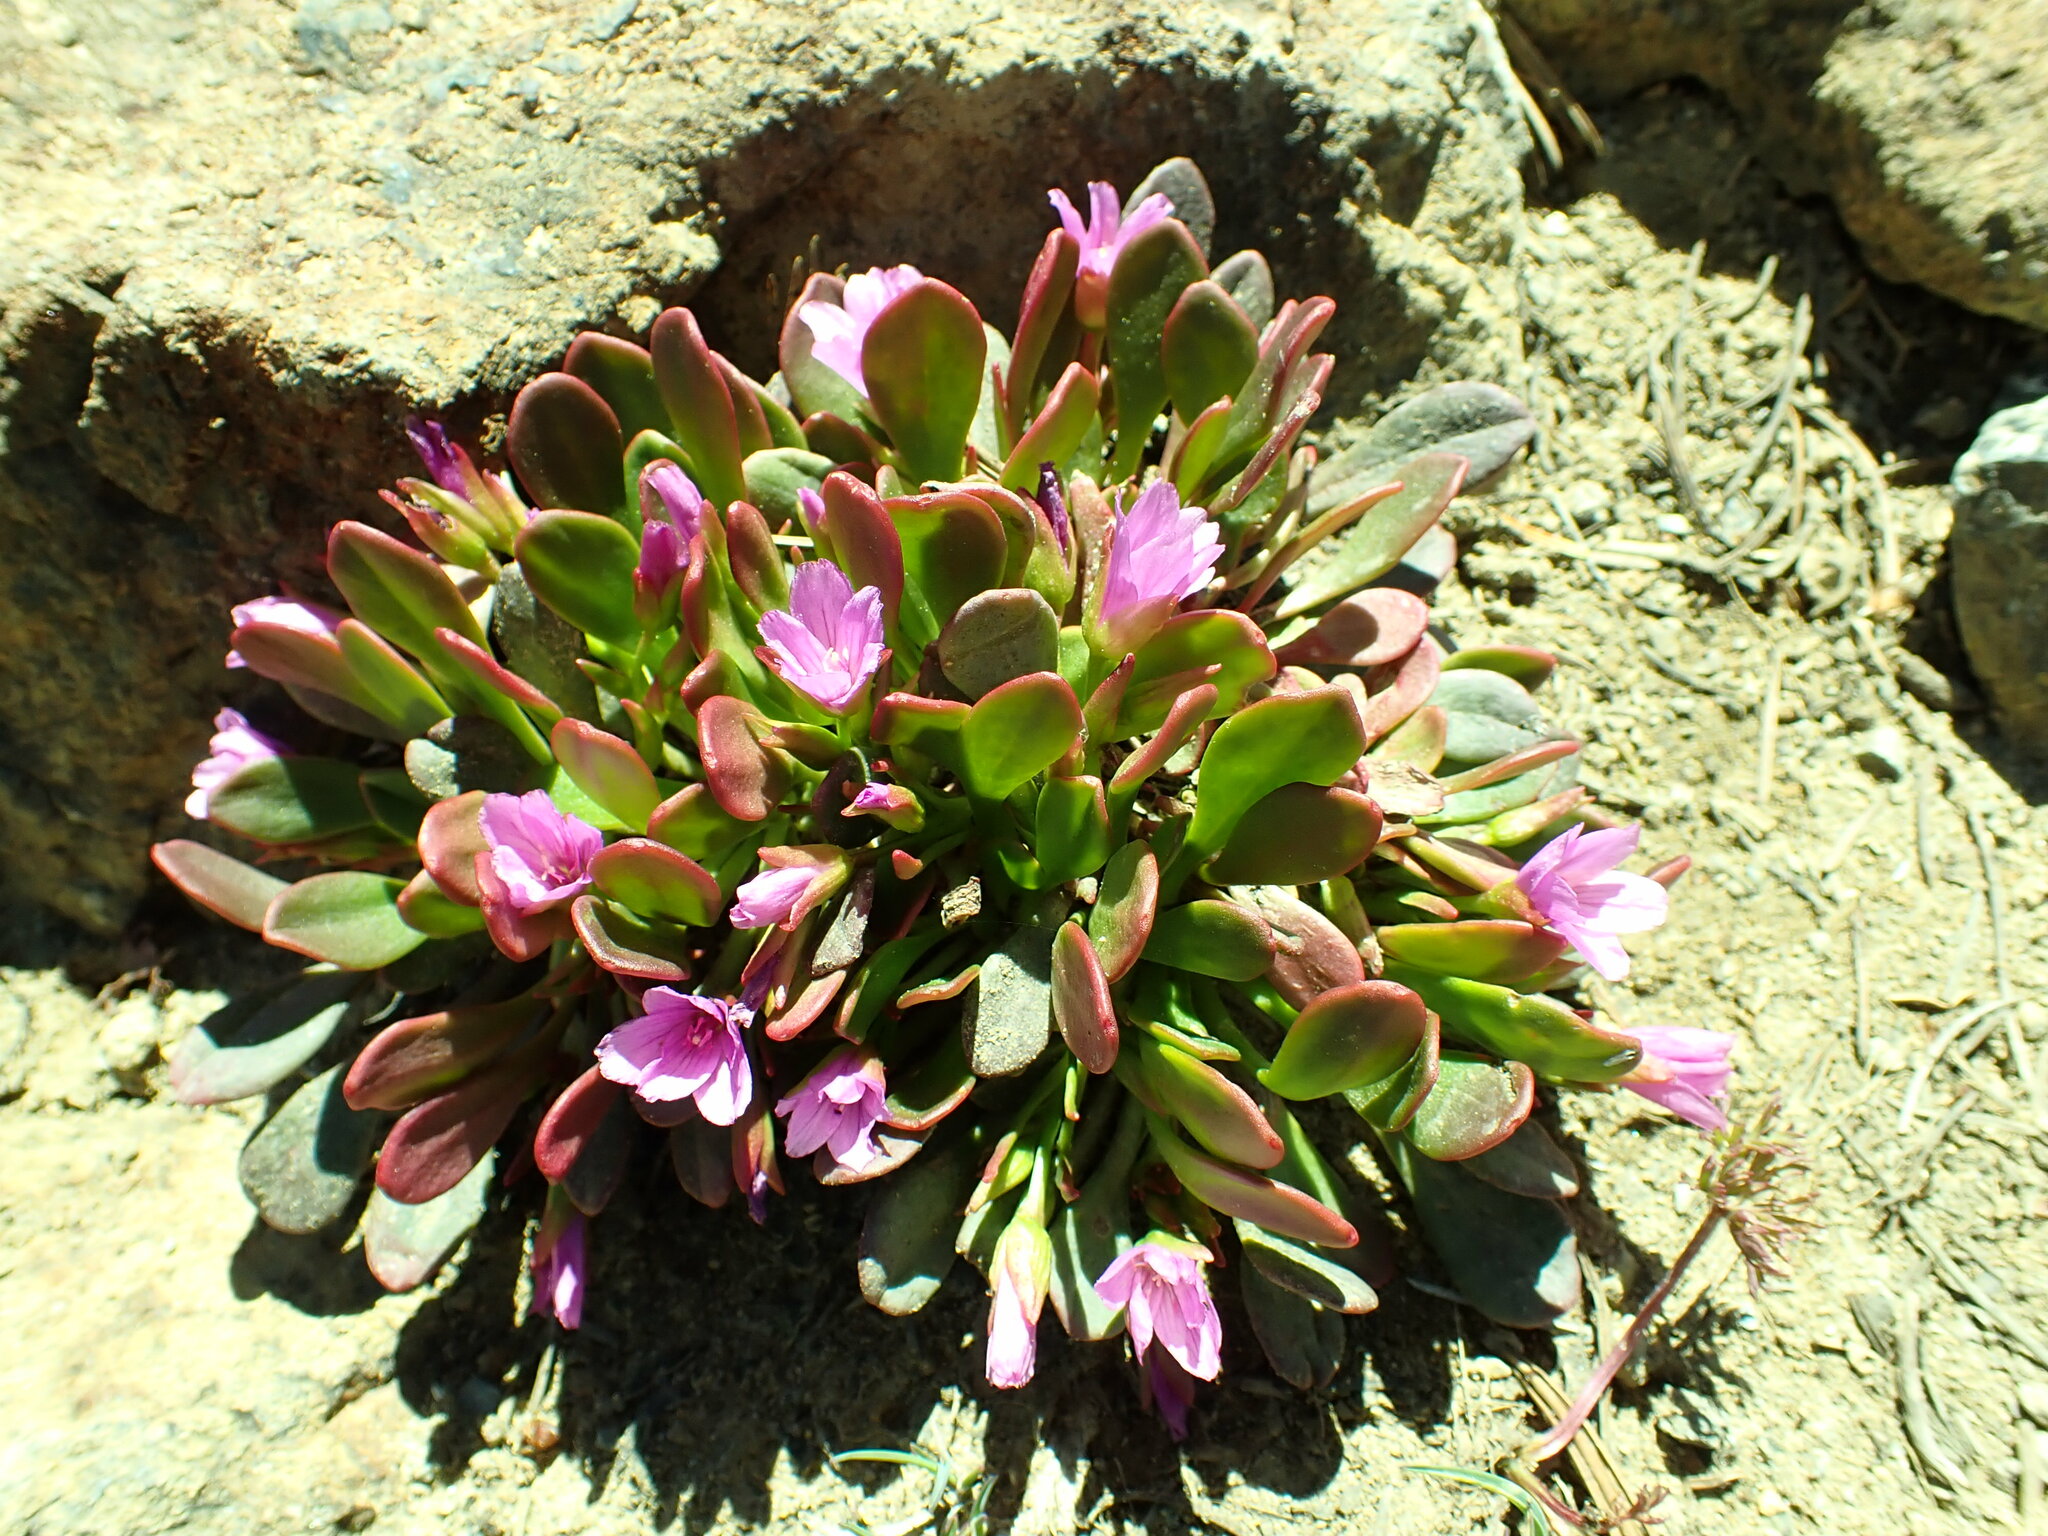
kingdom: Plantae
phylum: Tracheophyta
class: Magnoliopsida
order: Caryophyllales
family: Montiaceae
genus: Claytonia
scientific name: Claytonia megarhiza
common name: Alpine spring beauty
